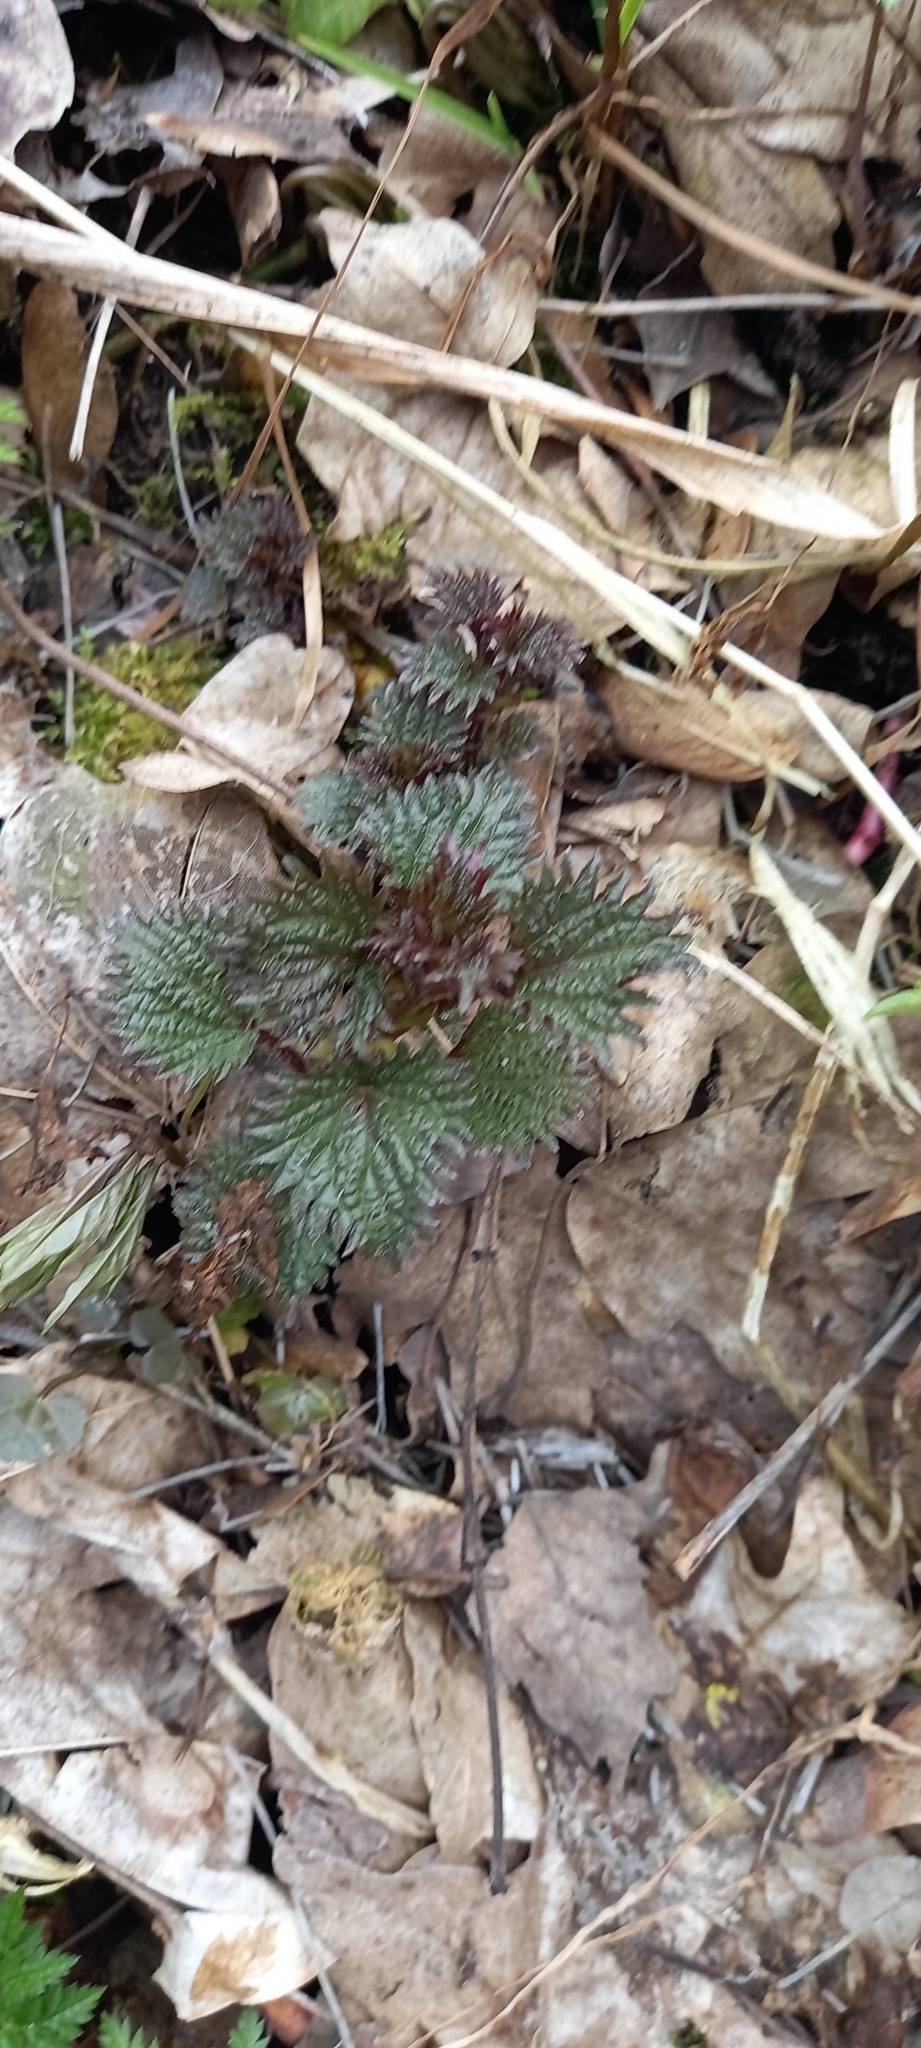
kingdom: Plantae
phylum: Tracheophyta
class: Magnoliopsida
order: Rosales
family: Urticaceae
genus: Urtica
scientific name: Urtica dioica
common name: Common nettle
